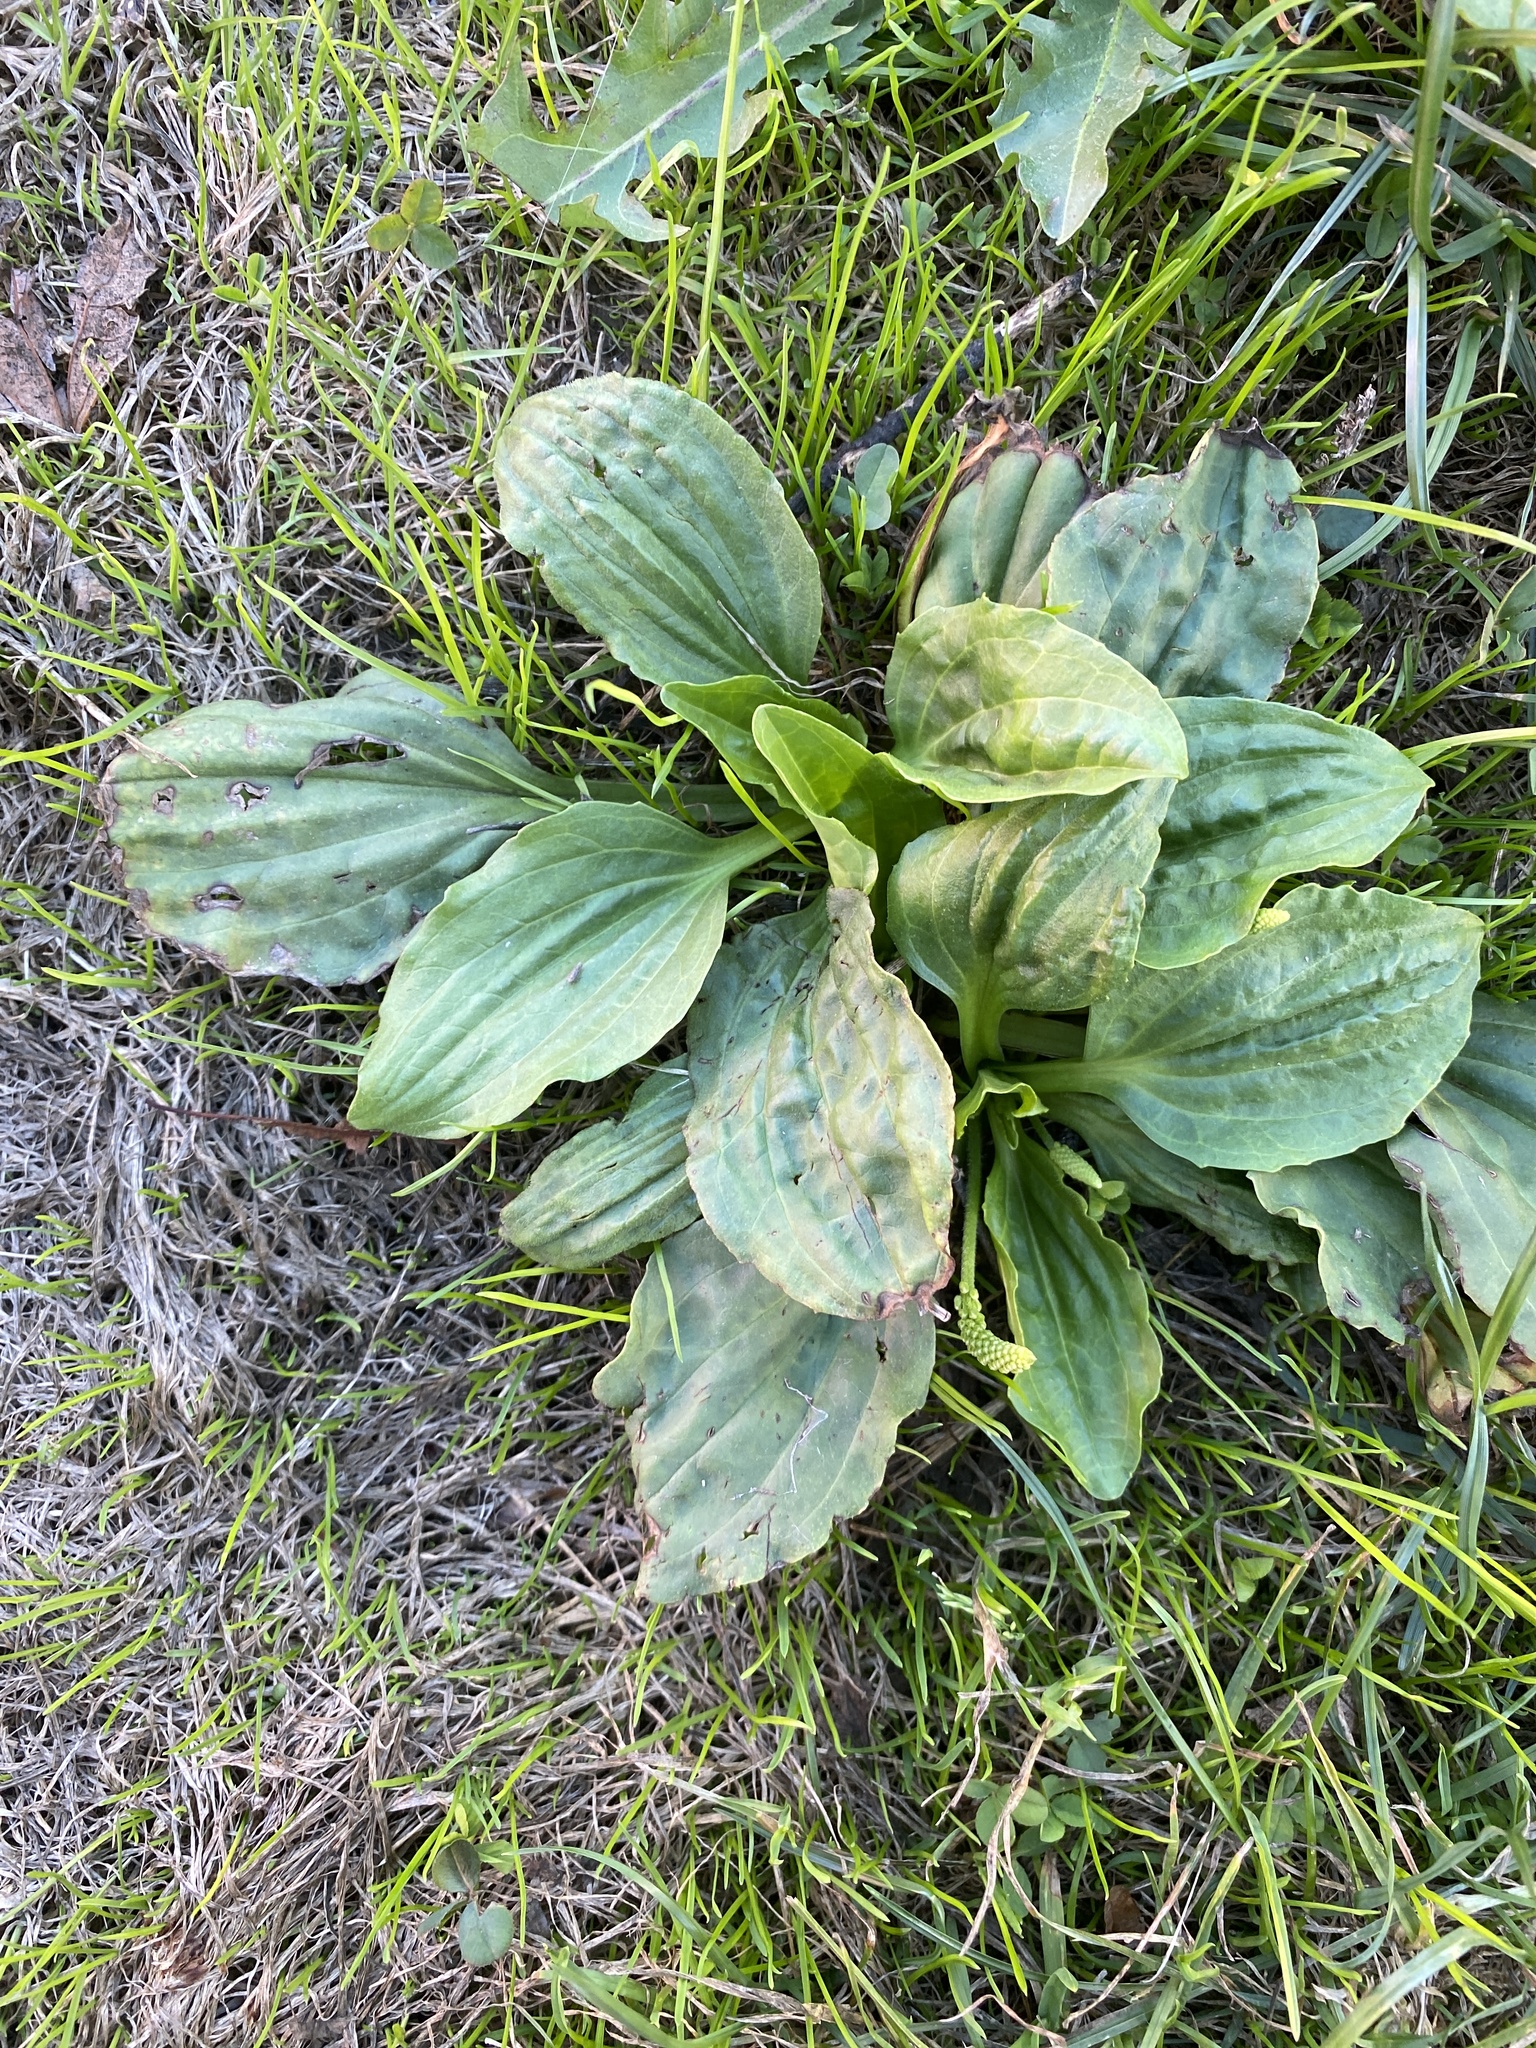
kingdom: Plantae
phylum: Tracheophyta
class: Magnoliopsida
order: Lamiales
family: Plantaginaceae
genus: Plantago
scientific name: Plantago major
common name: Common plantain
